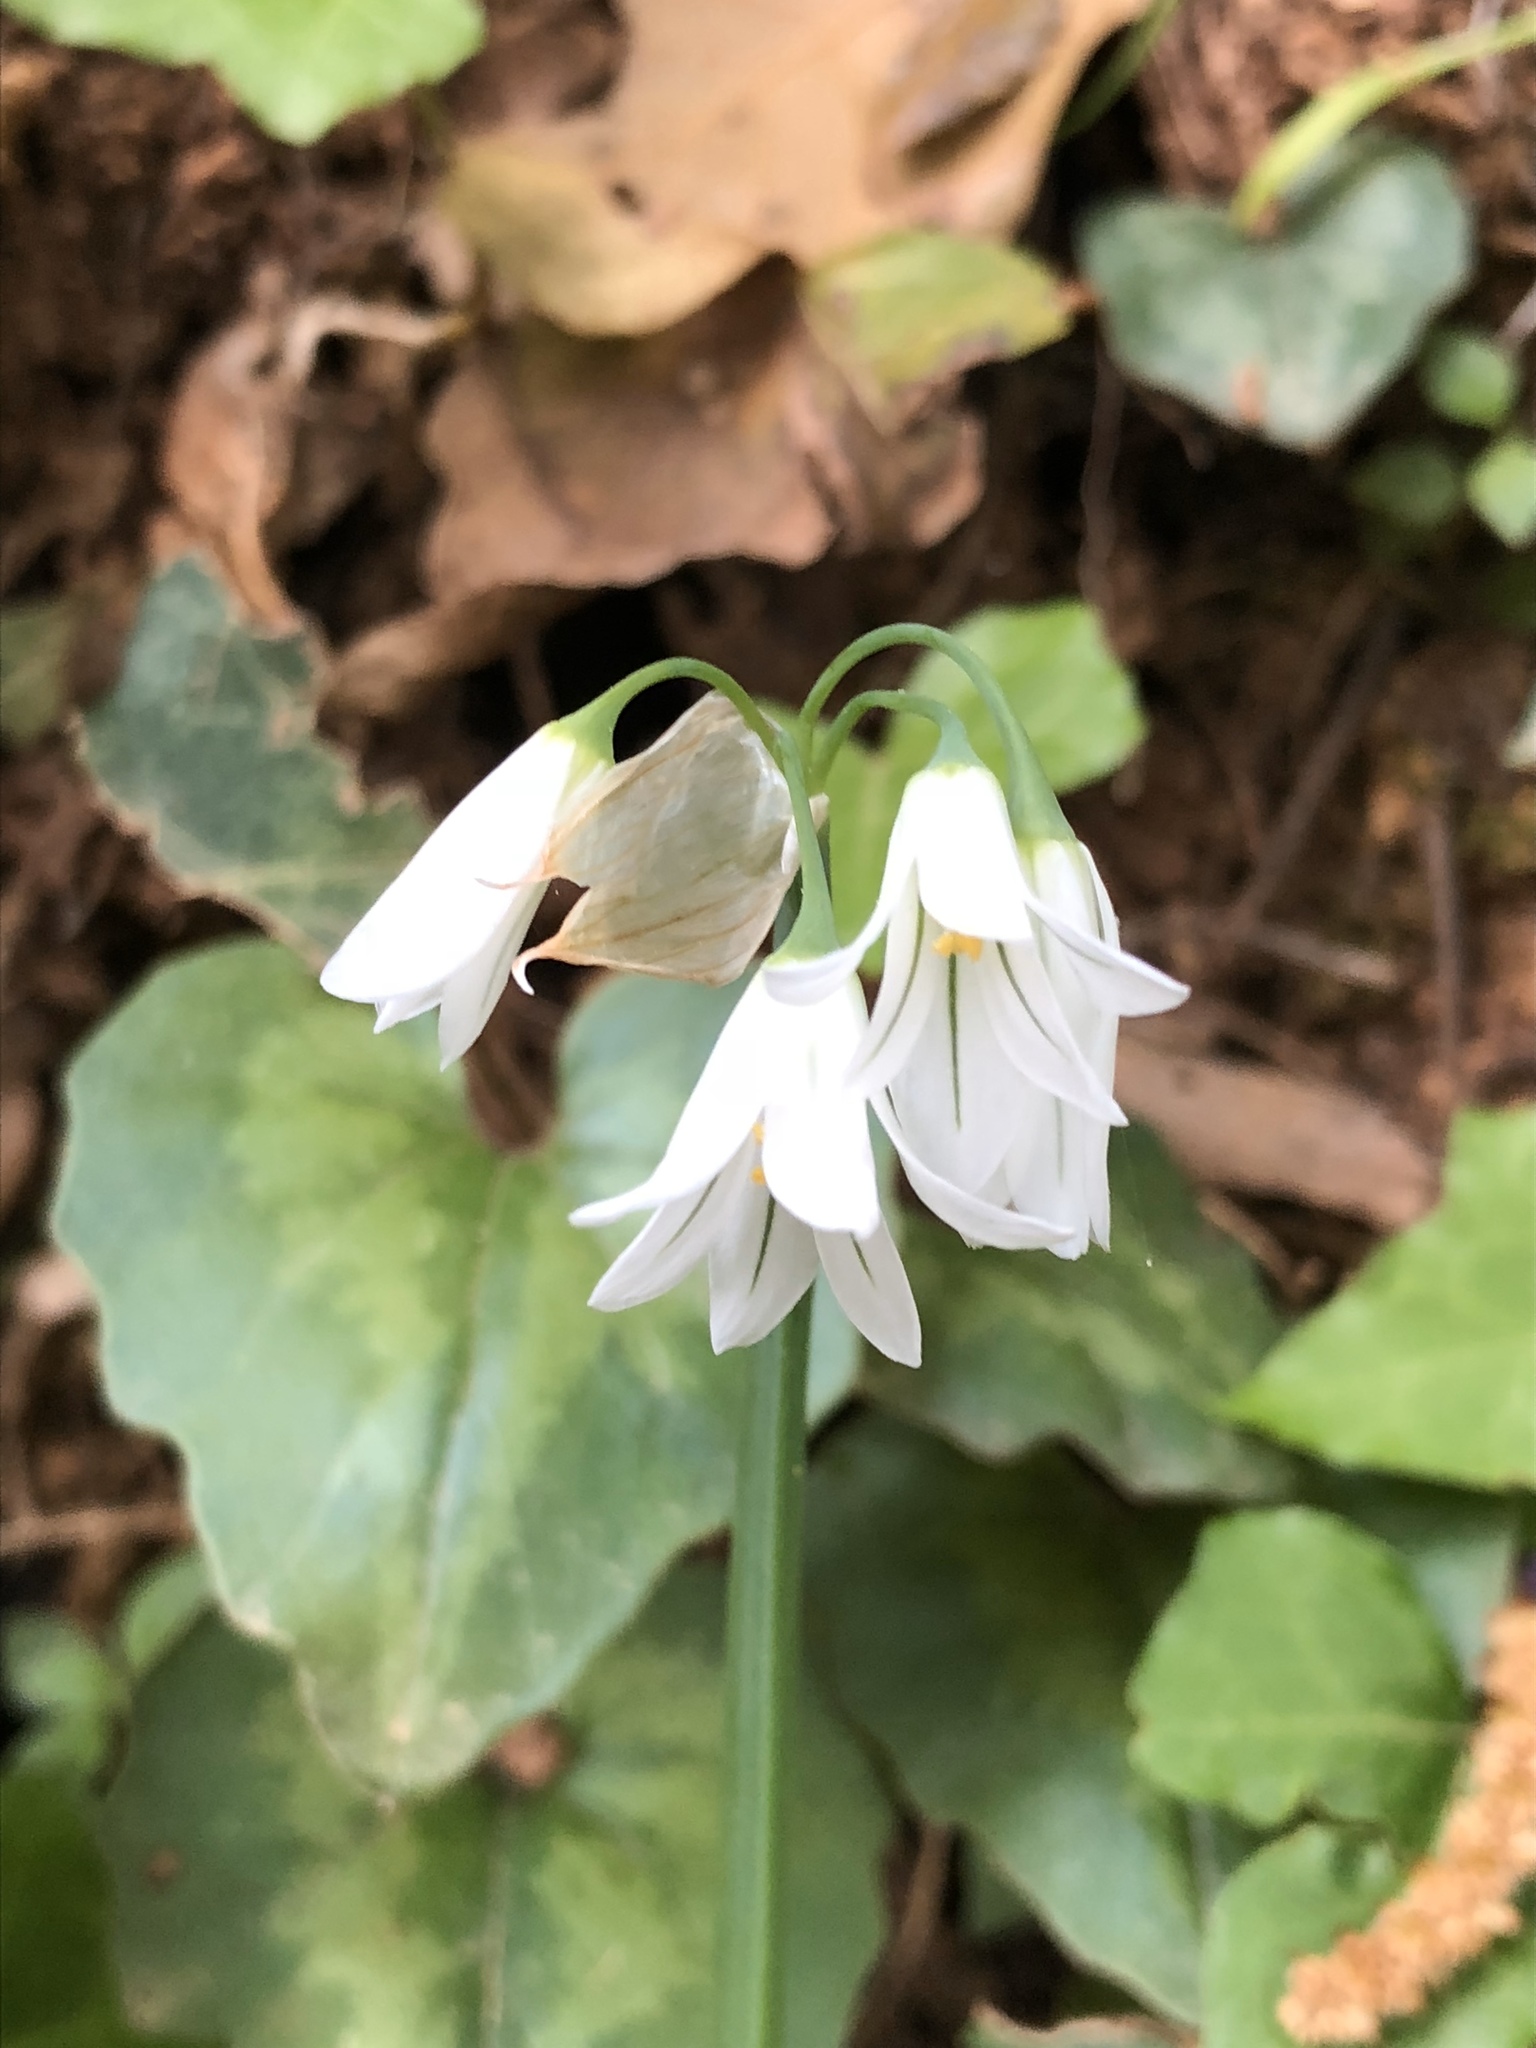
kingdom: Plantae
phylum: Tracheophyta
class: Liliopsida
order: Asparagales
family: Amaryllidaceae
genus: Allium
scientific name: Allium triquetrum
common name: Three-cornered garlic
